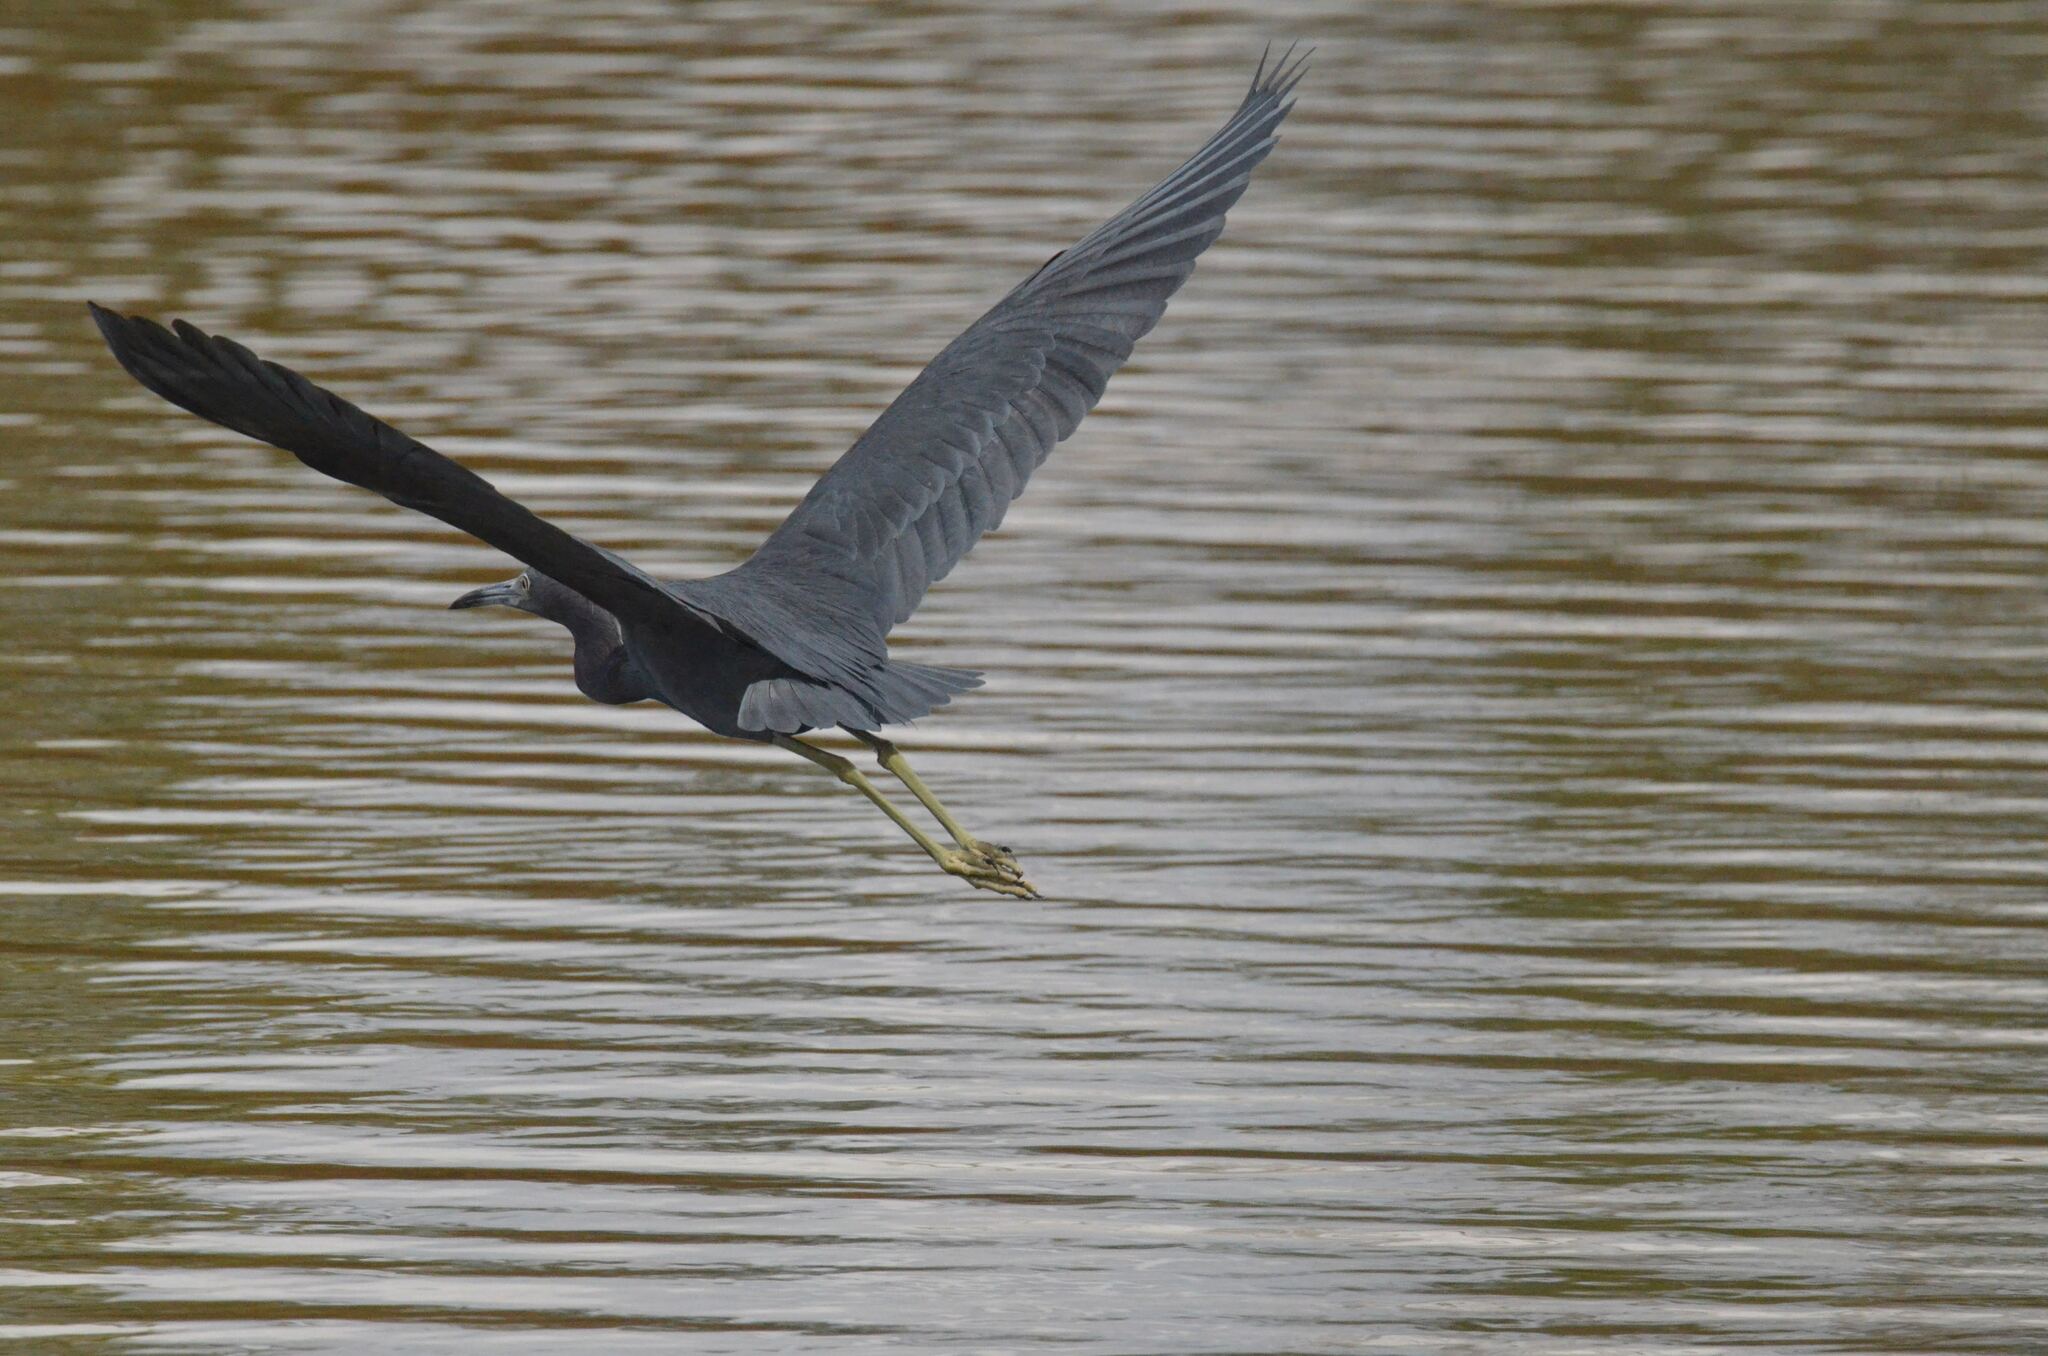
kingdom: Animalia
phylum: Chordata
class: Aves
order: Pelecaniformes
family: Ardeidae
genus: Egretta
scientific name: Egretta caerulea
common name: Little blue heron
